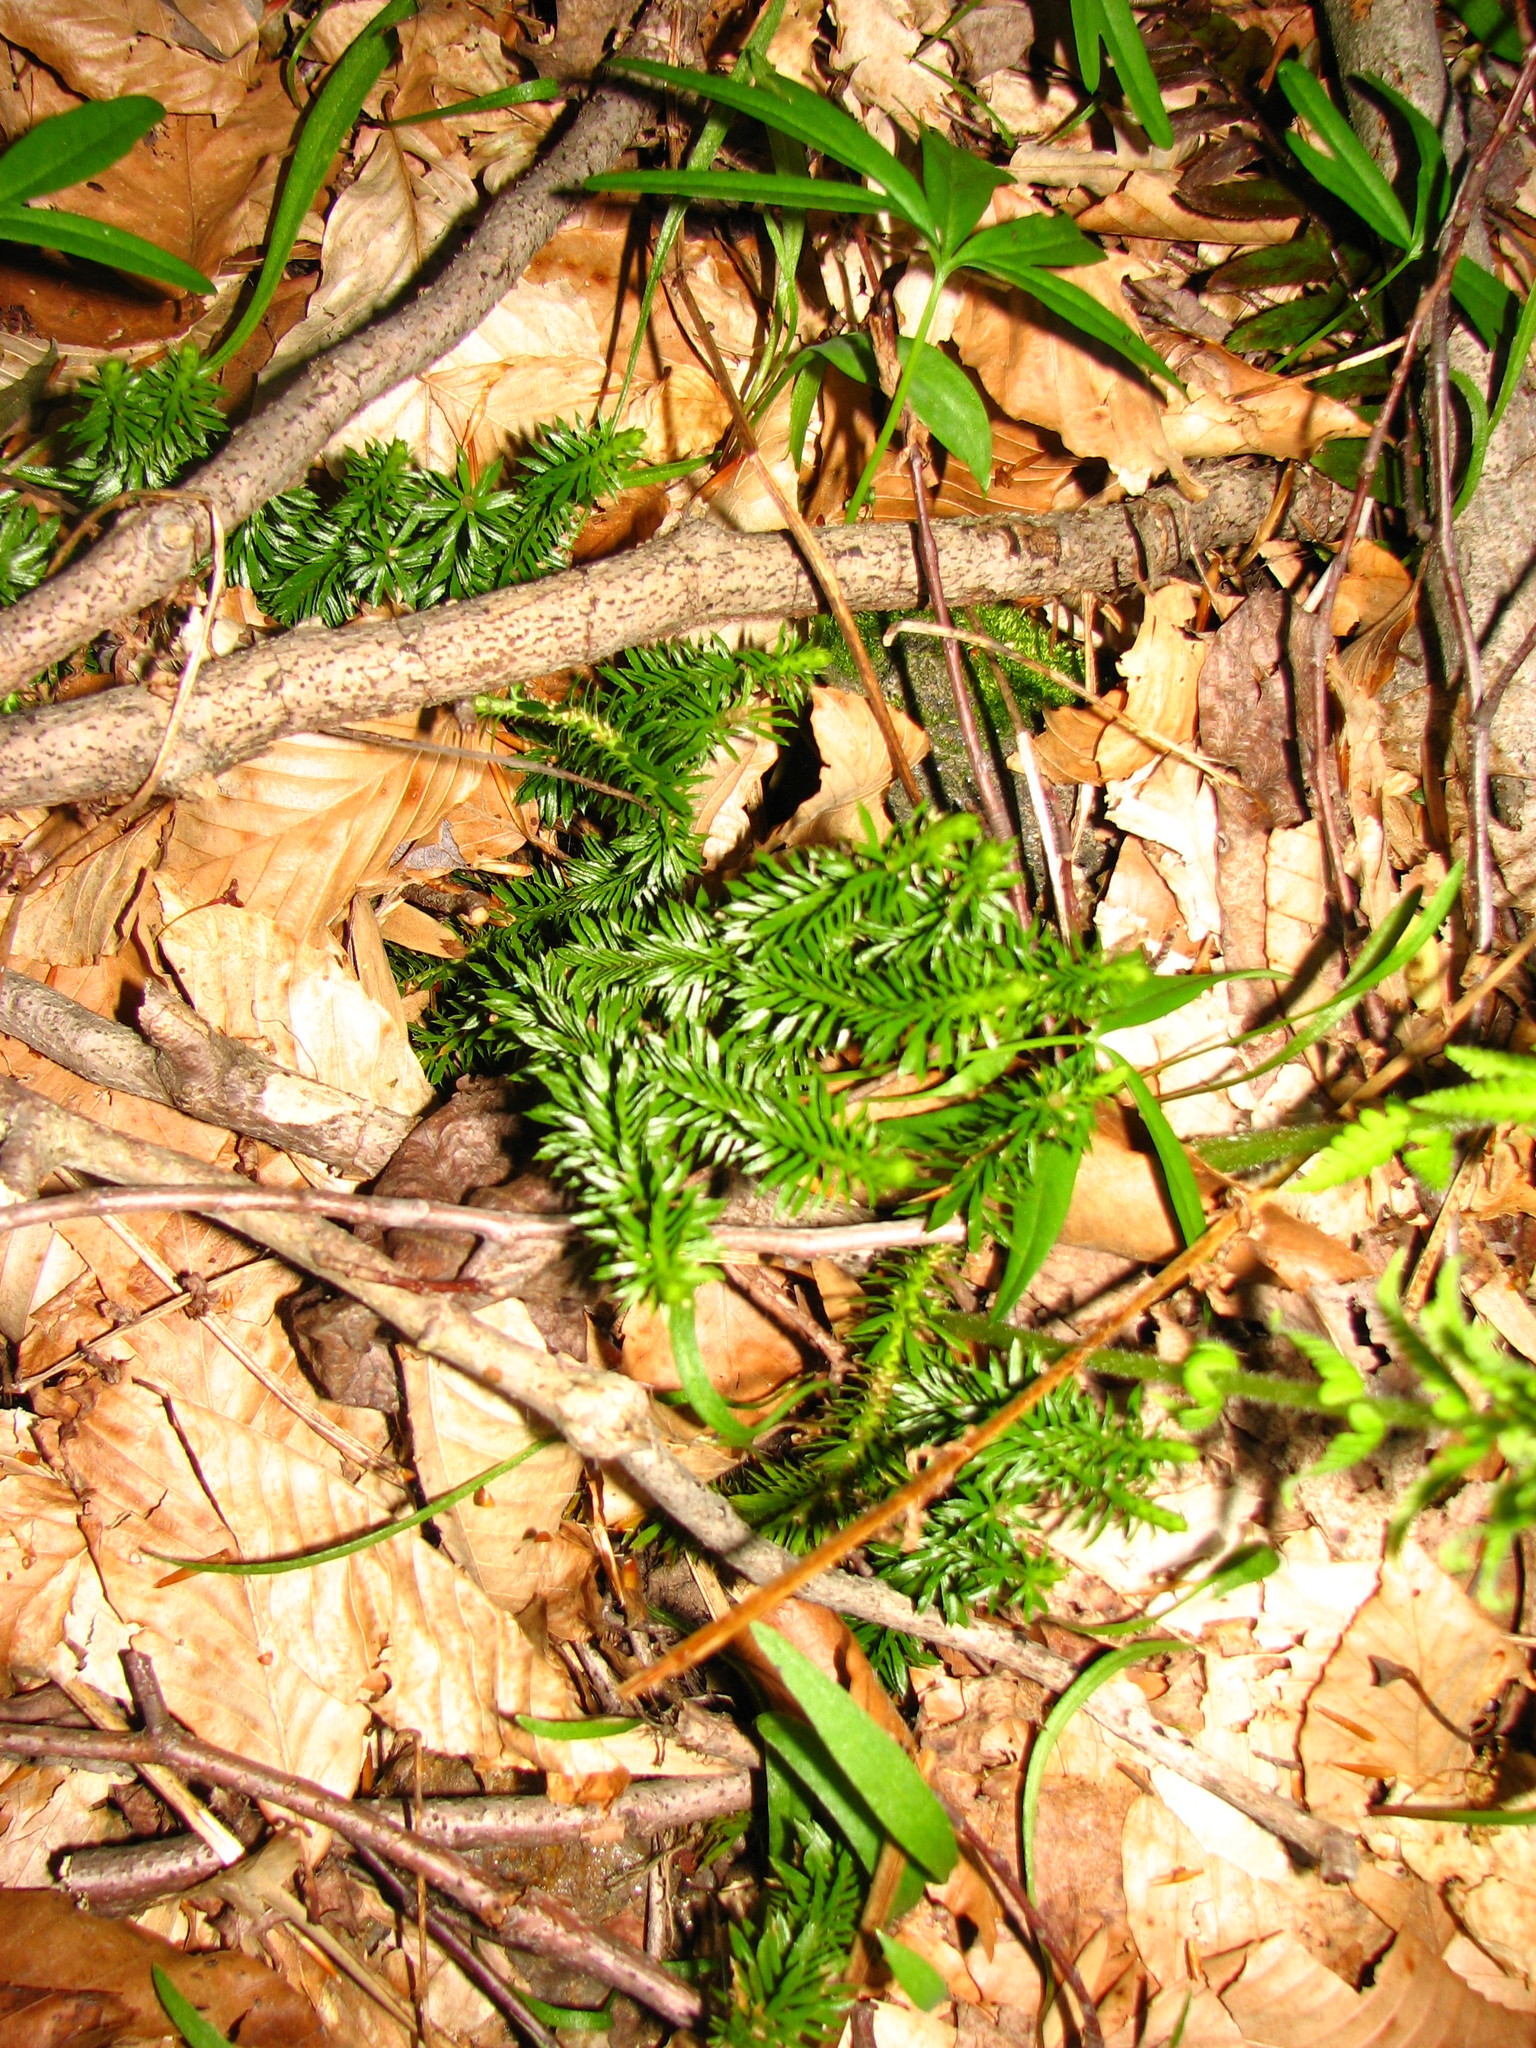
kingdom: Plantae
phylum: Tracheophyta
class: Lycopodiopsida
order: Lycopodiales
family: Lycopodiaceae
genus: Huperzia
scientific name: Huperzia lucidula
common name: Shining clubmoss
